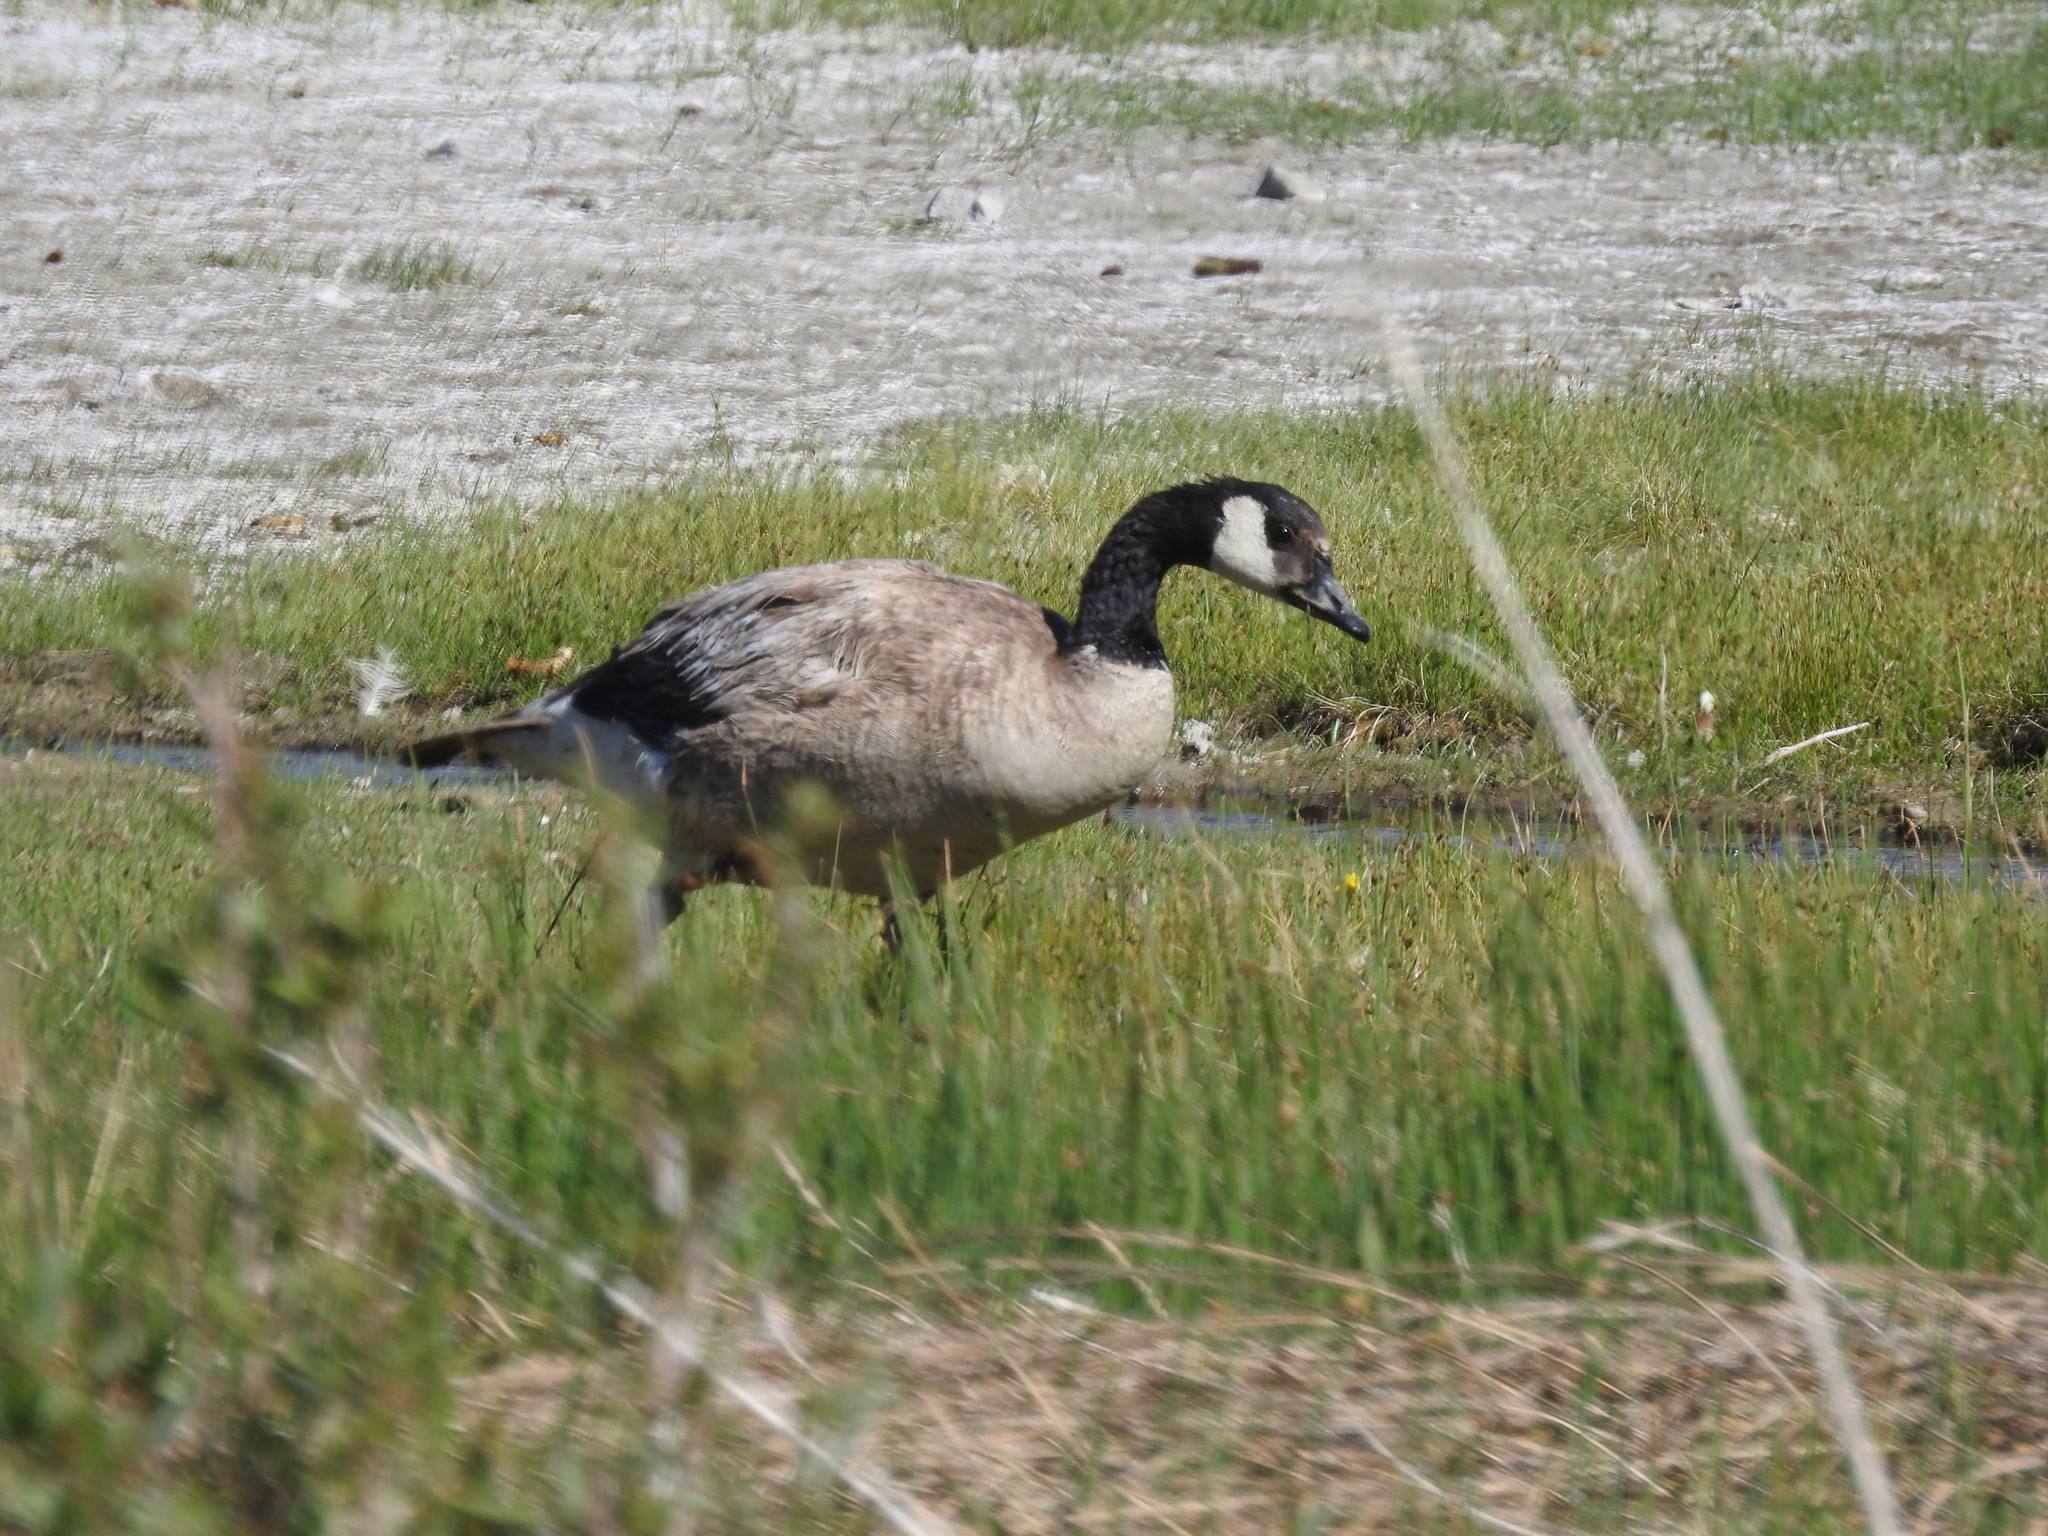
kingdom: Animalia
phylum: Chordata
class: Aves
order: Anseriformes
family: Anatidae
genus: Branta
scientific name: Branta canadensis
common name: Canada goose
